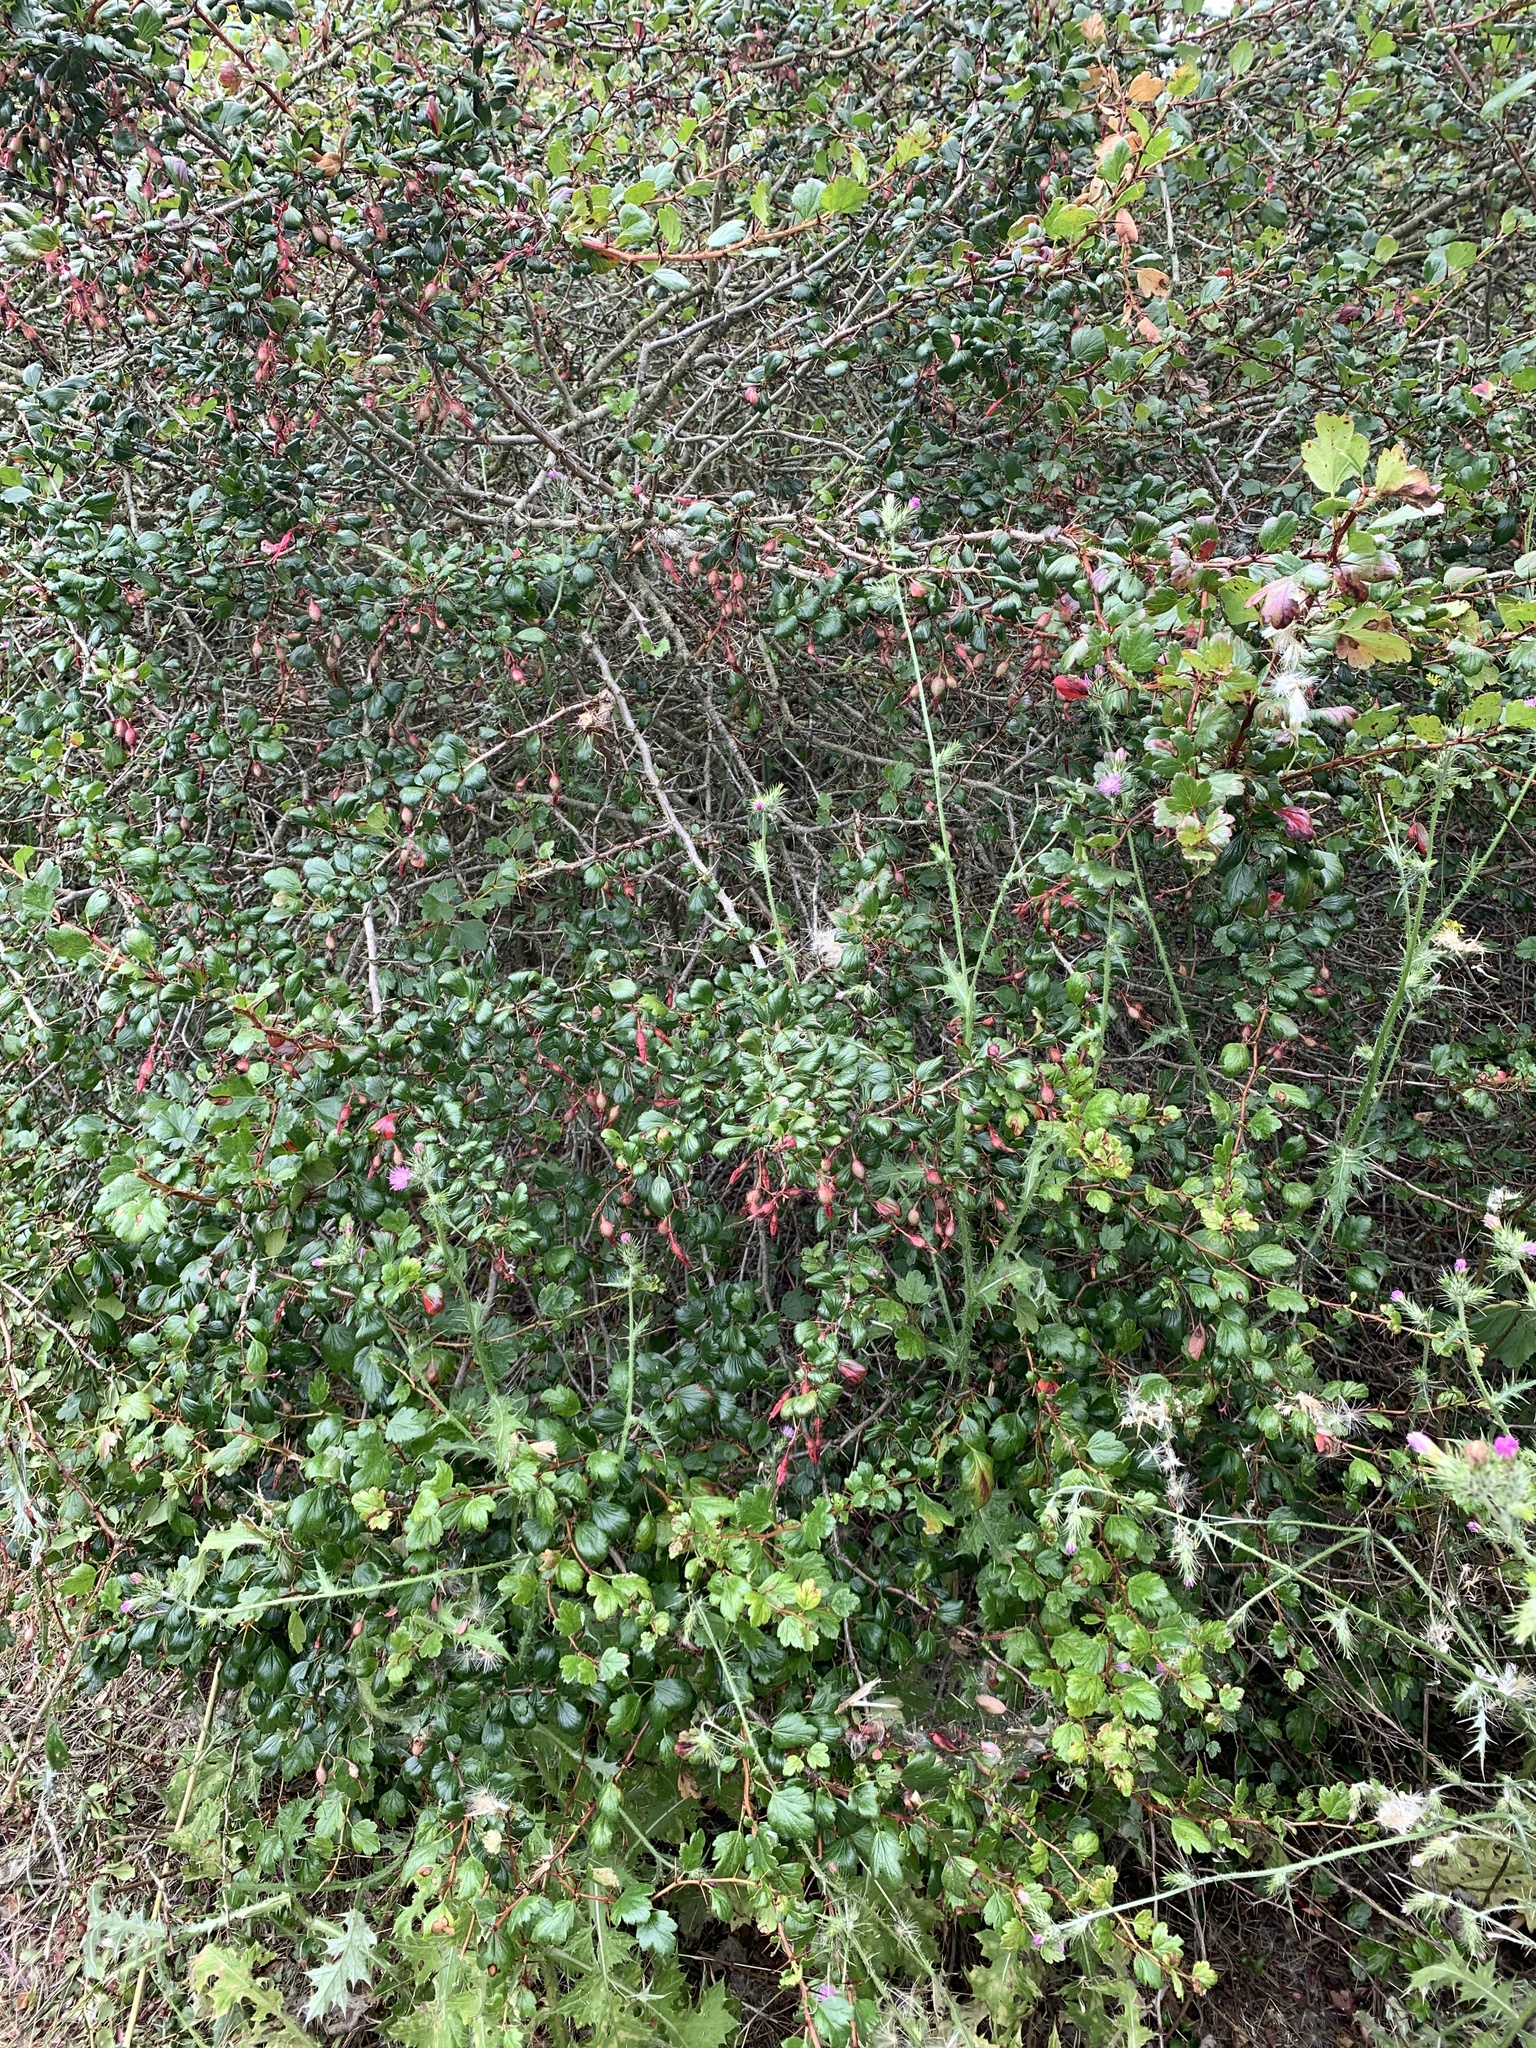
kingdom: Plantae
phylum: Tracheophyta
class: Magnoliopsida
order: Saxifragales
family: Grossulariaceae
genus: Ribes
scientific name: Ribes speciosum
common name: Fuchsia-flower gooseberry
